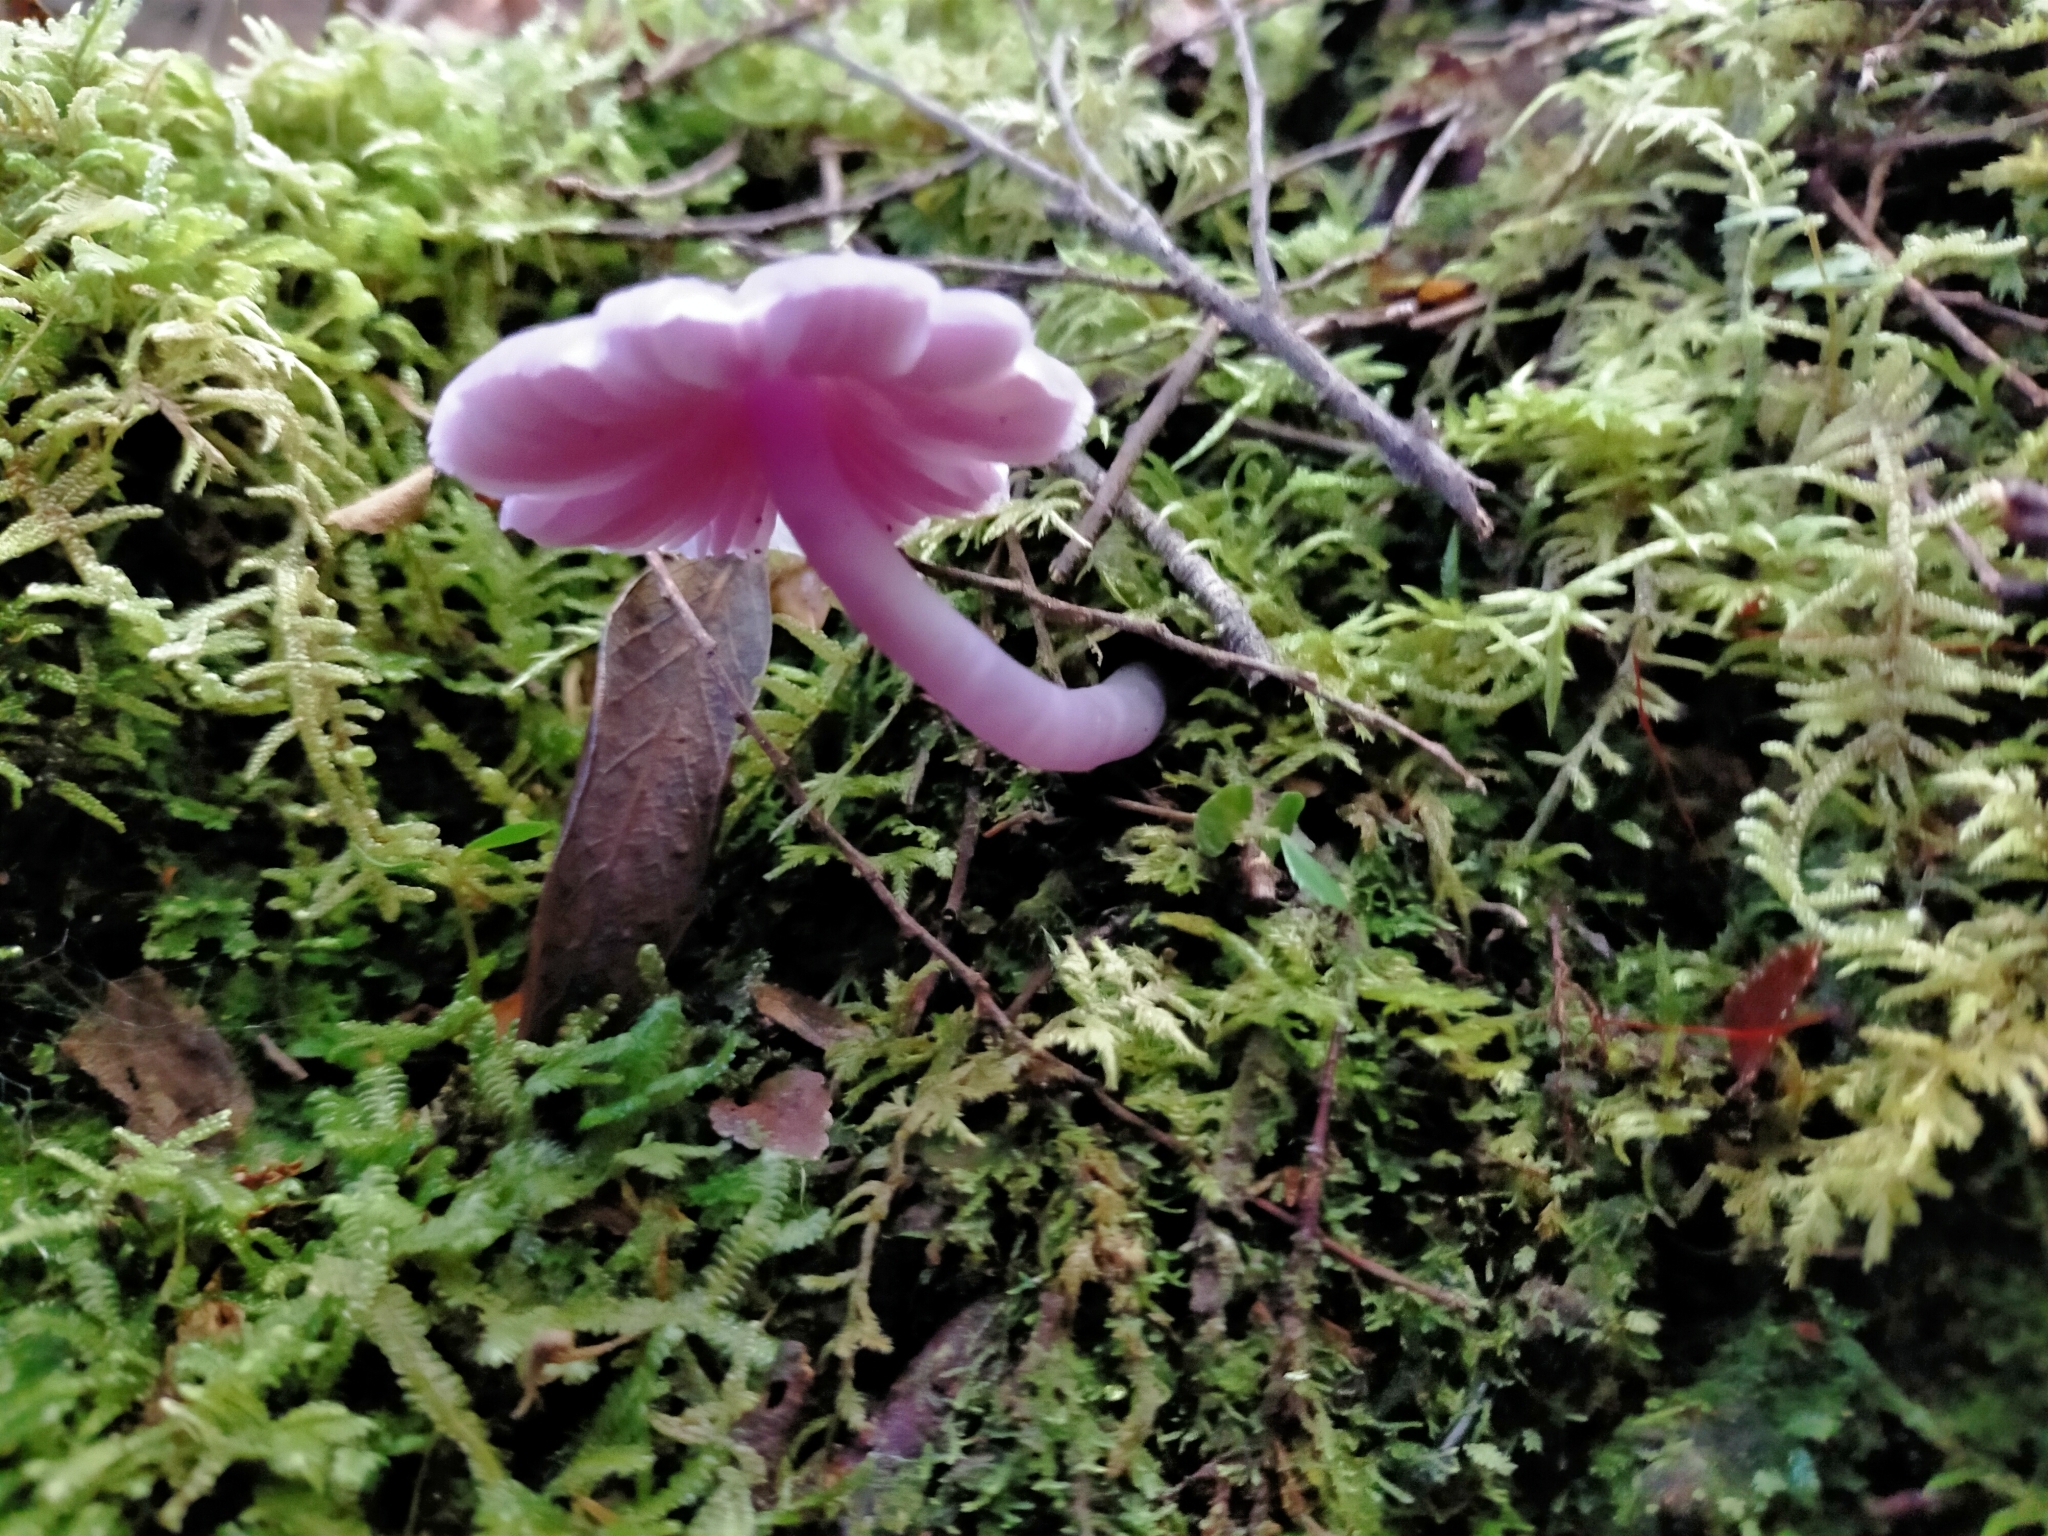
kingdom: Fungi
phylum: Basidiomycota
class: Agaricomycetes
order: Agaricales
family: Hygrophoraceae
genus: Porpolomopsis
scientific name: Porpolomopsis lewelliniae
